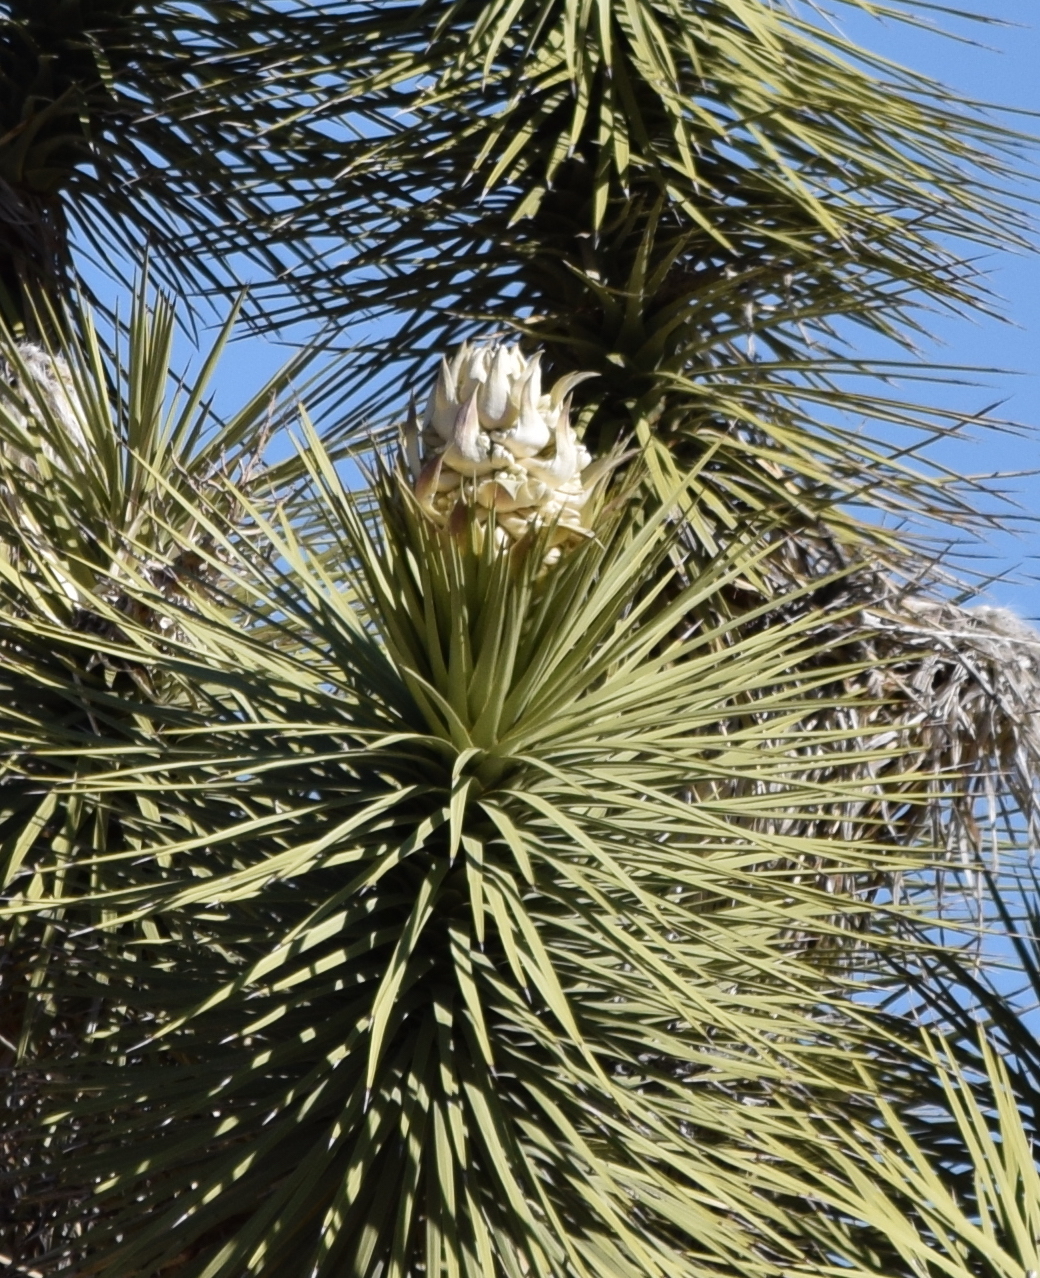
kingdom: Plantae
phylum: Tracheophyta
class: Liliopsida
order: Asparagales
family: Asparagaceae
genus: Yucca
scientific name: Yucca brevifolia
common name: Joshua tree
